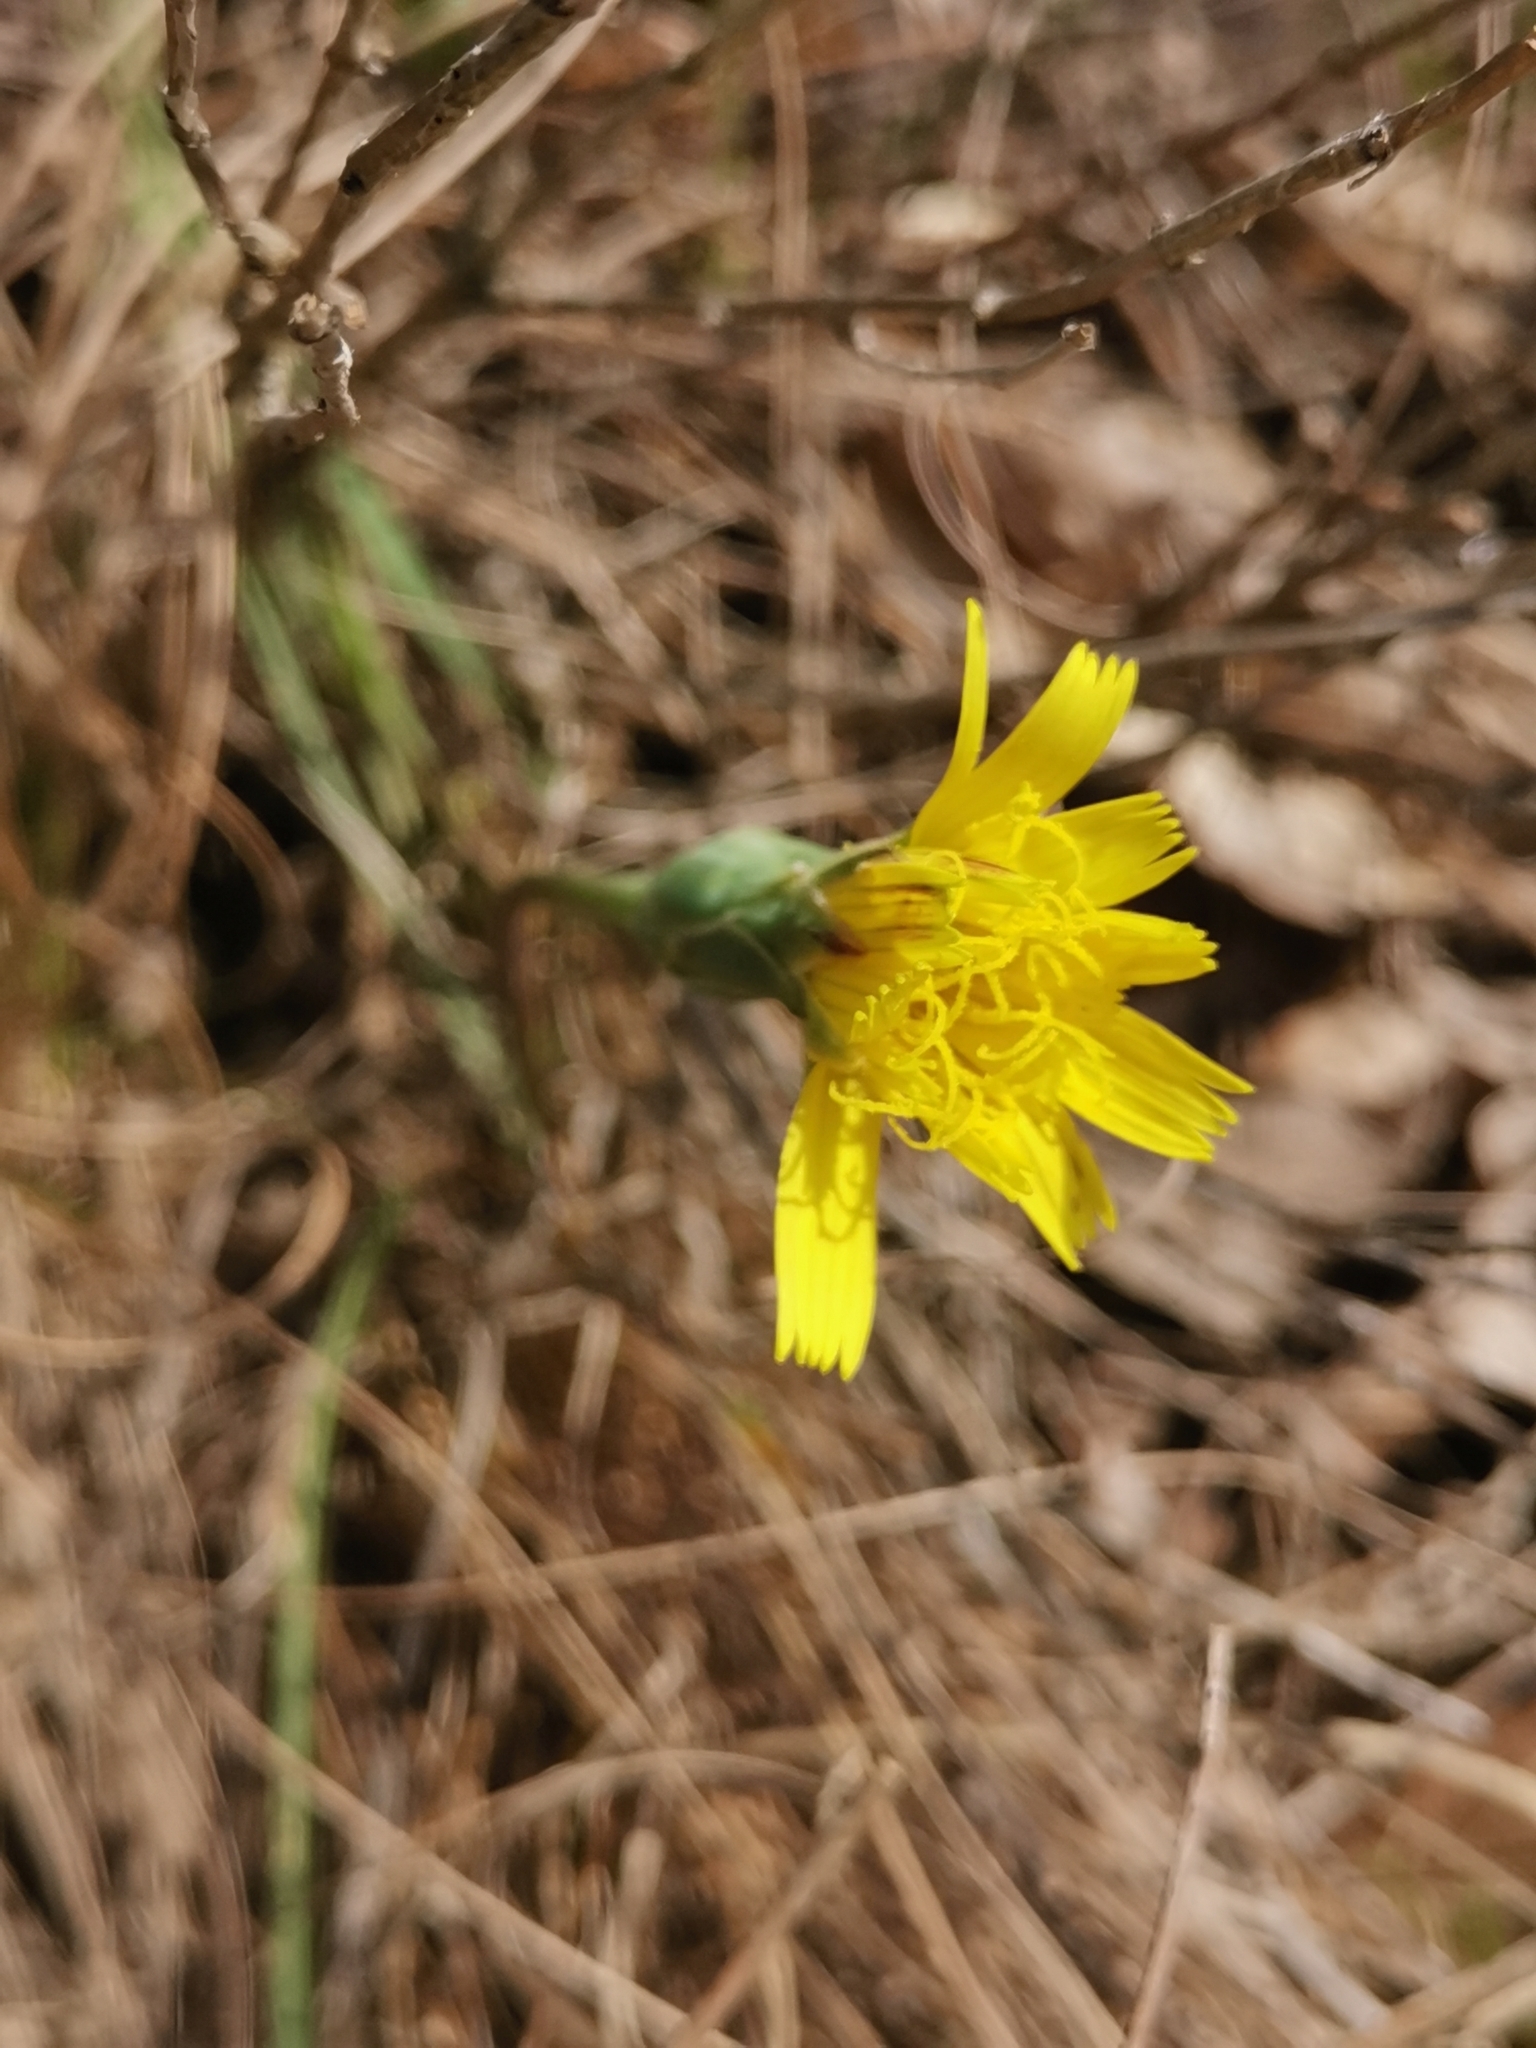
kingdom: Plantae
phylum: Tracheophyta
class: Magnoliopsida
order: Asterales
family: Asteraceae
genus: Takhtajaniantha
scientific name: Takhtajaniantha austriaca
